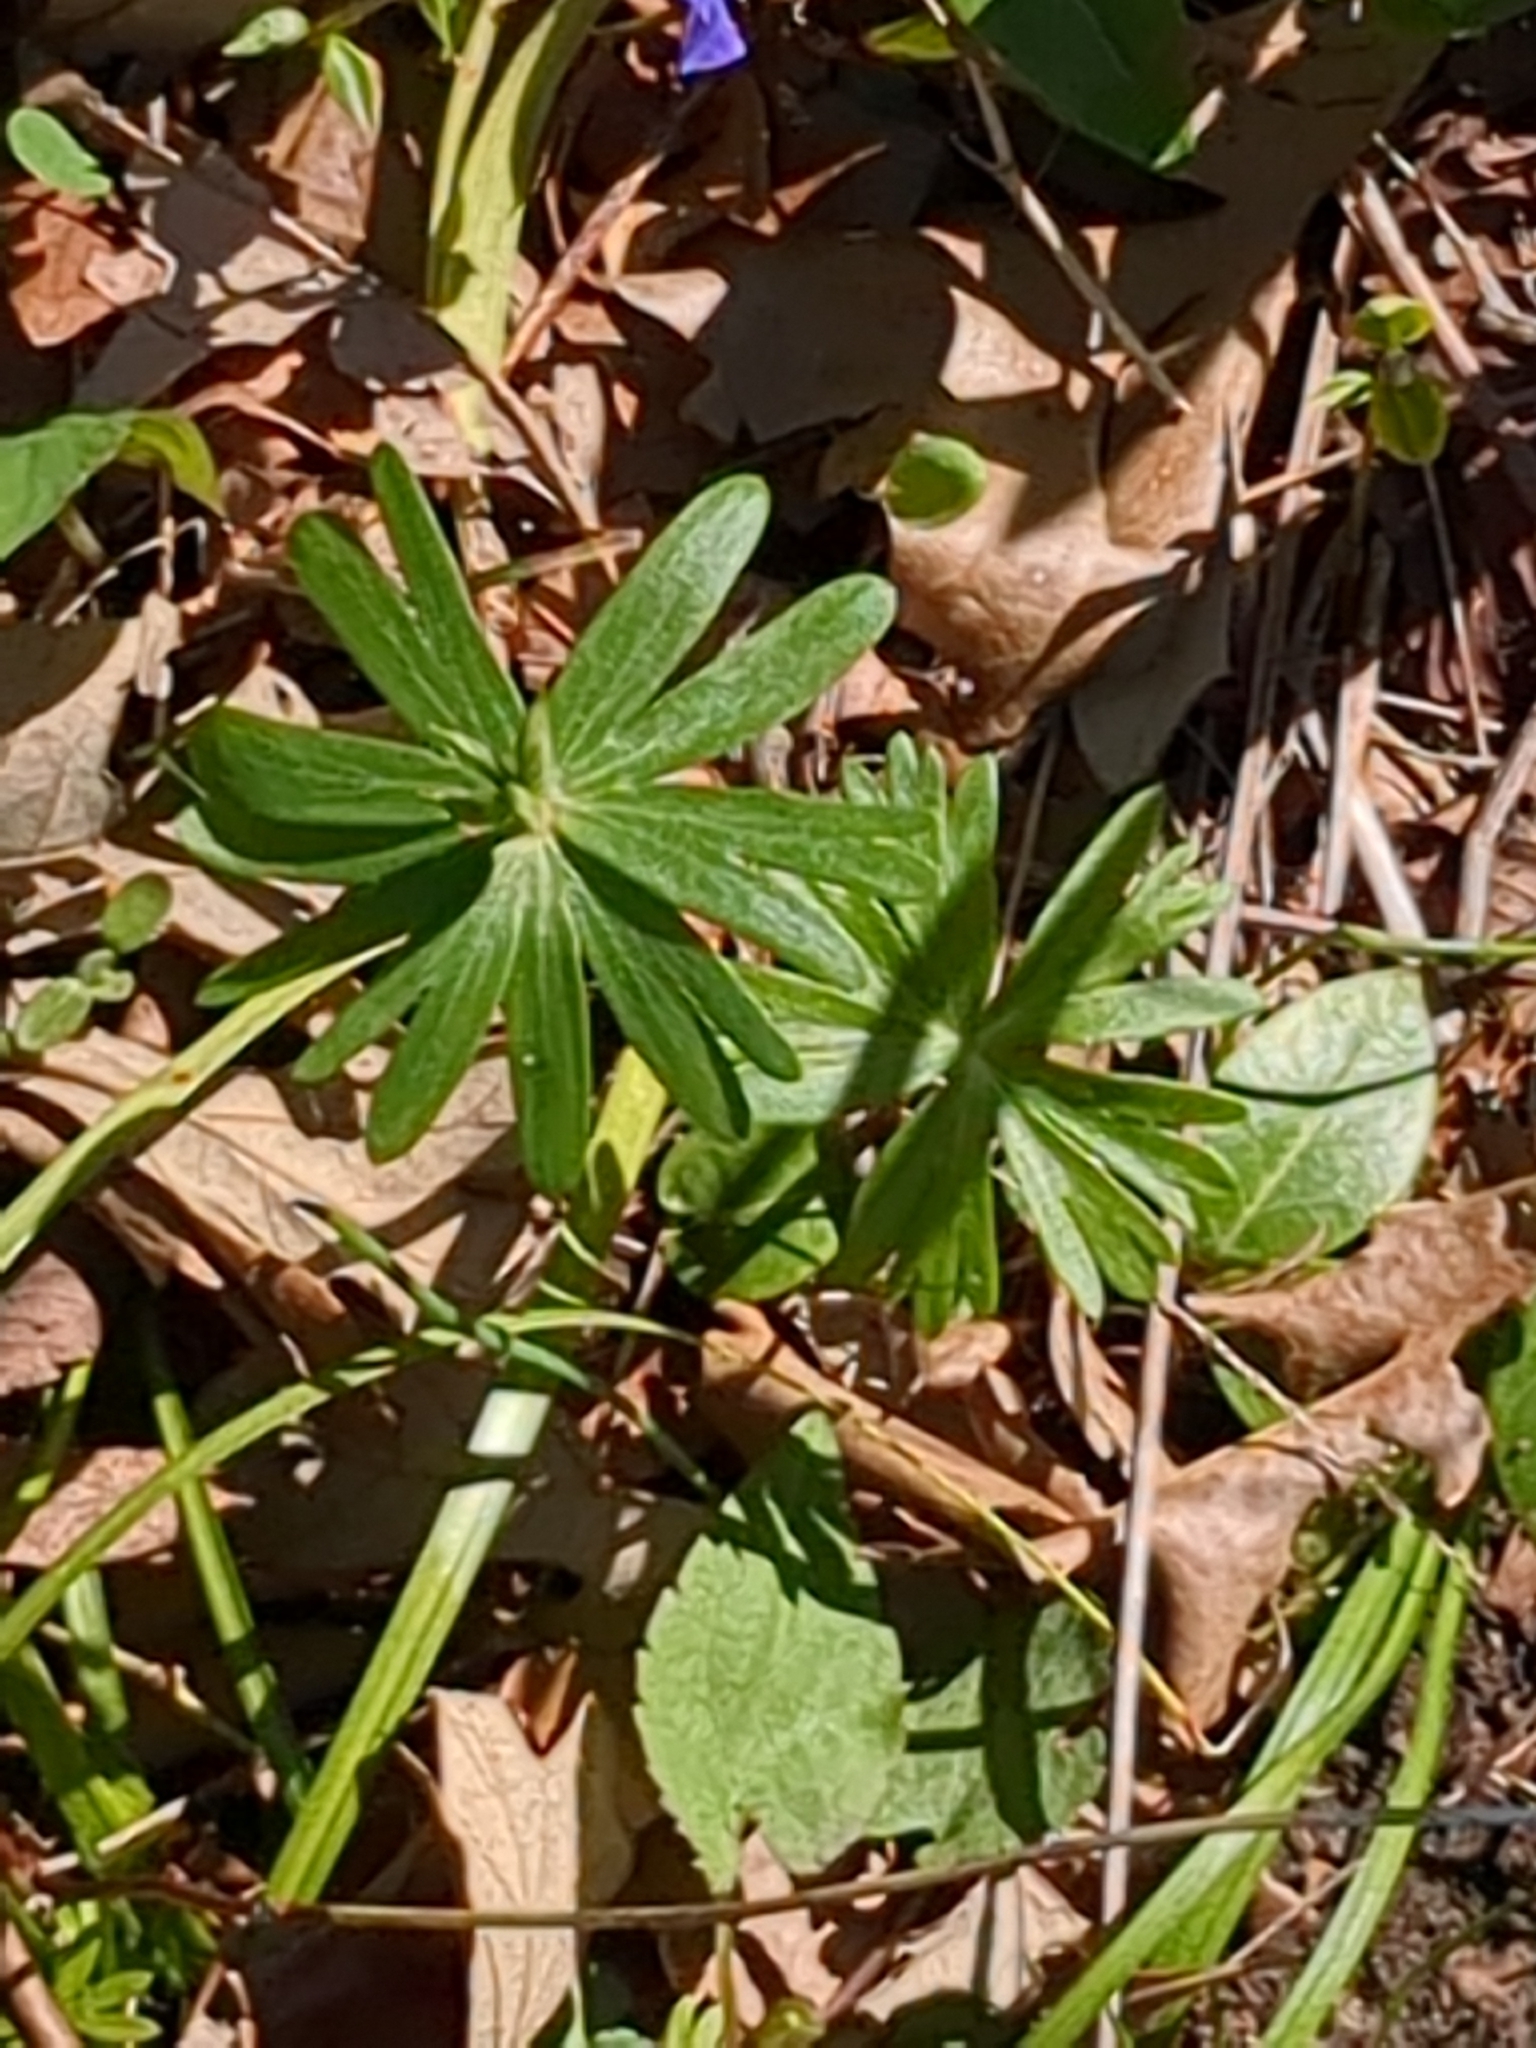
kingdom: Plantae
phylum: Tracheophyta
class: Magnoliopsida
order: Ranunculales
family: Ranunculaceae
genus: Eranthis
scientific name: Eranthis hyemalis
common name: Winter aconite
